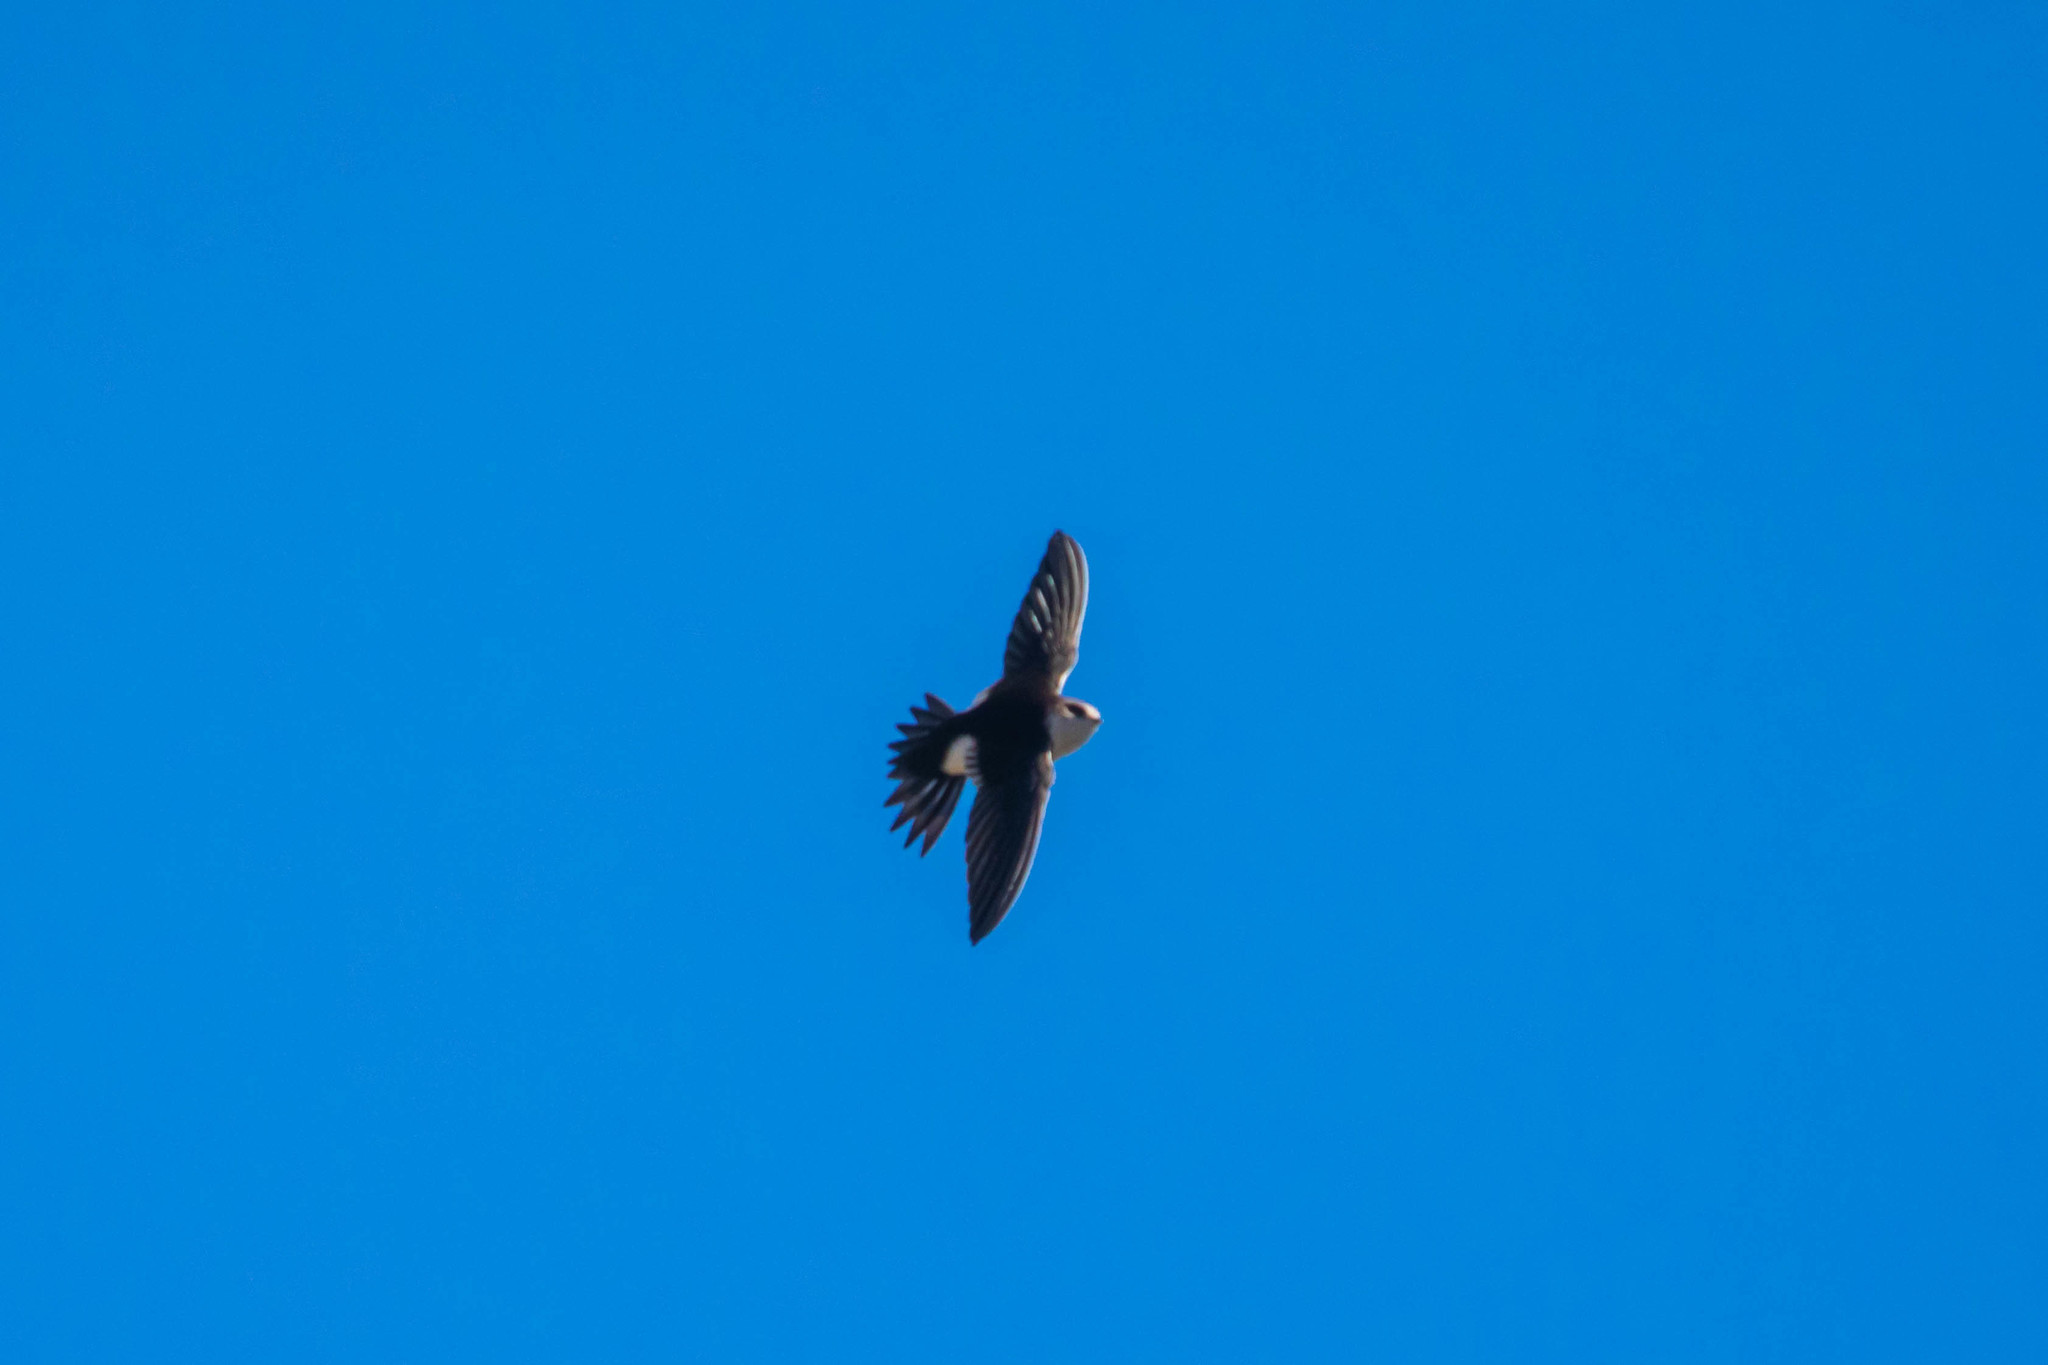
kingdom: Animalia
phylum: Chordata
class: Aves
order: Apodiformes
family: Apodidae
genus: Aeronautes
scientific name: Aeronautes saxatalis
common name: White-throated swift
